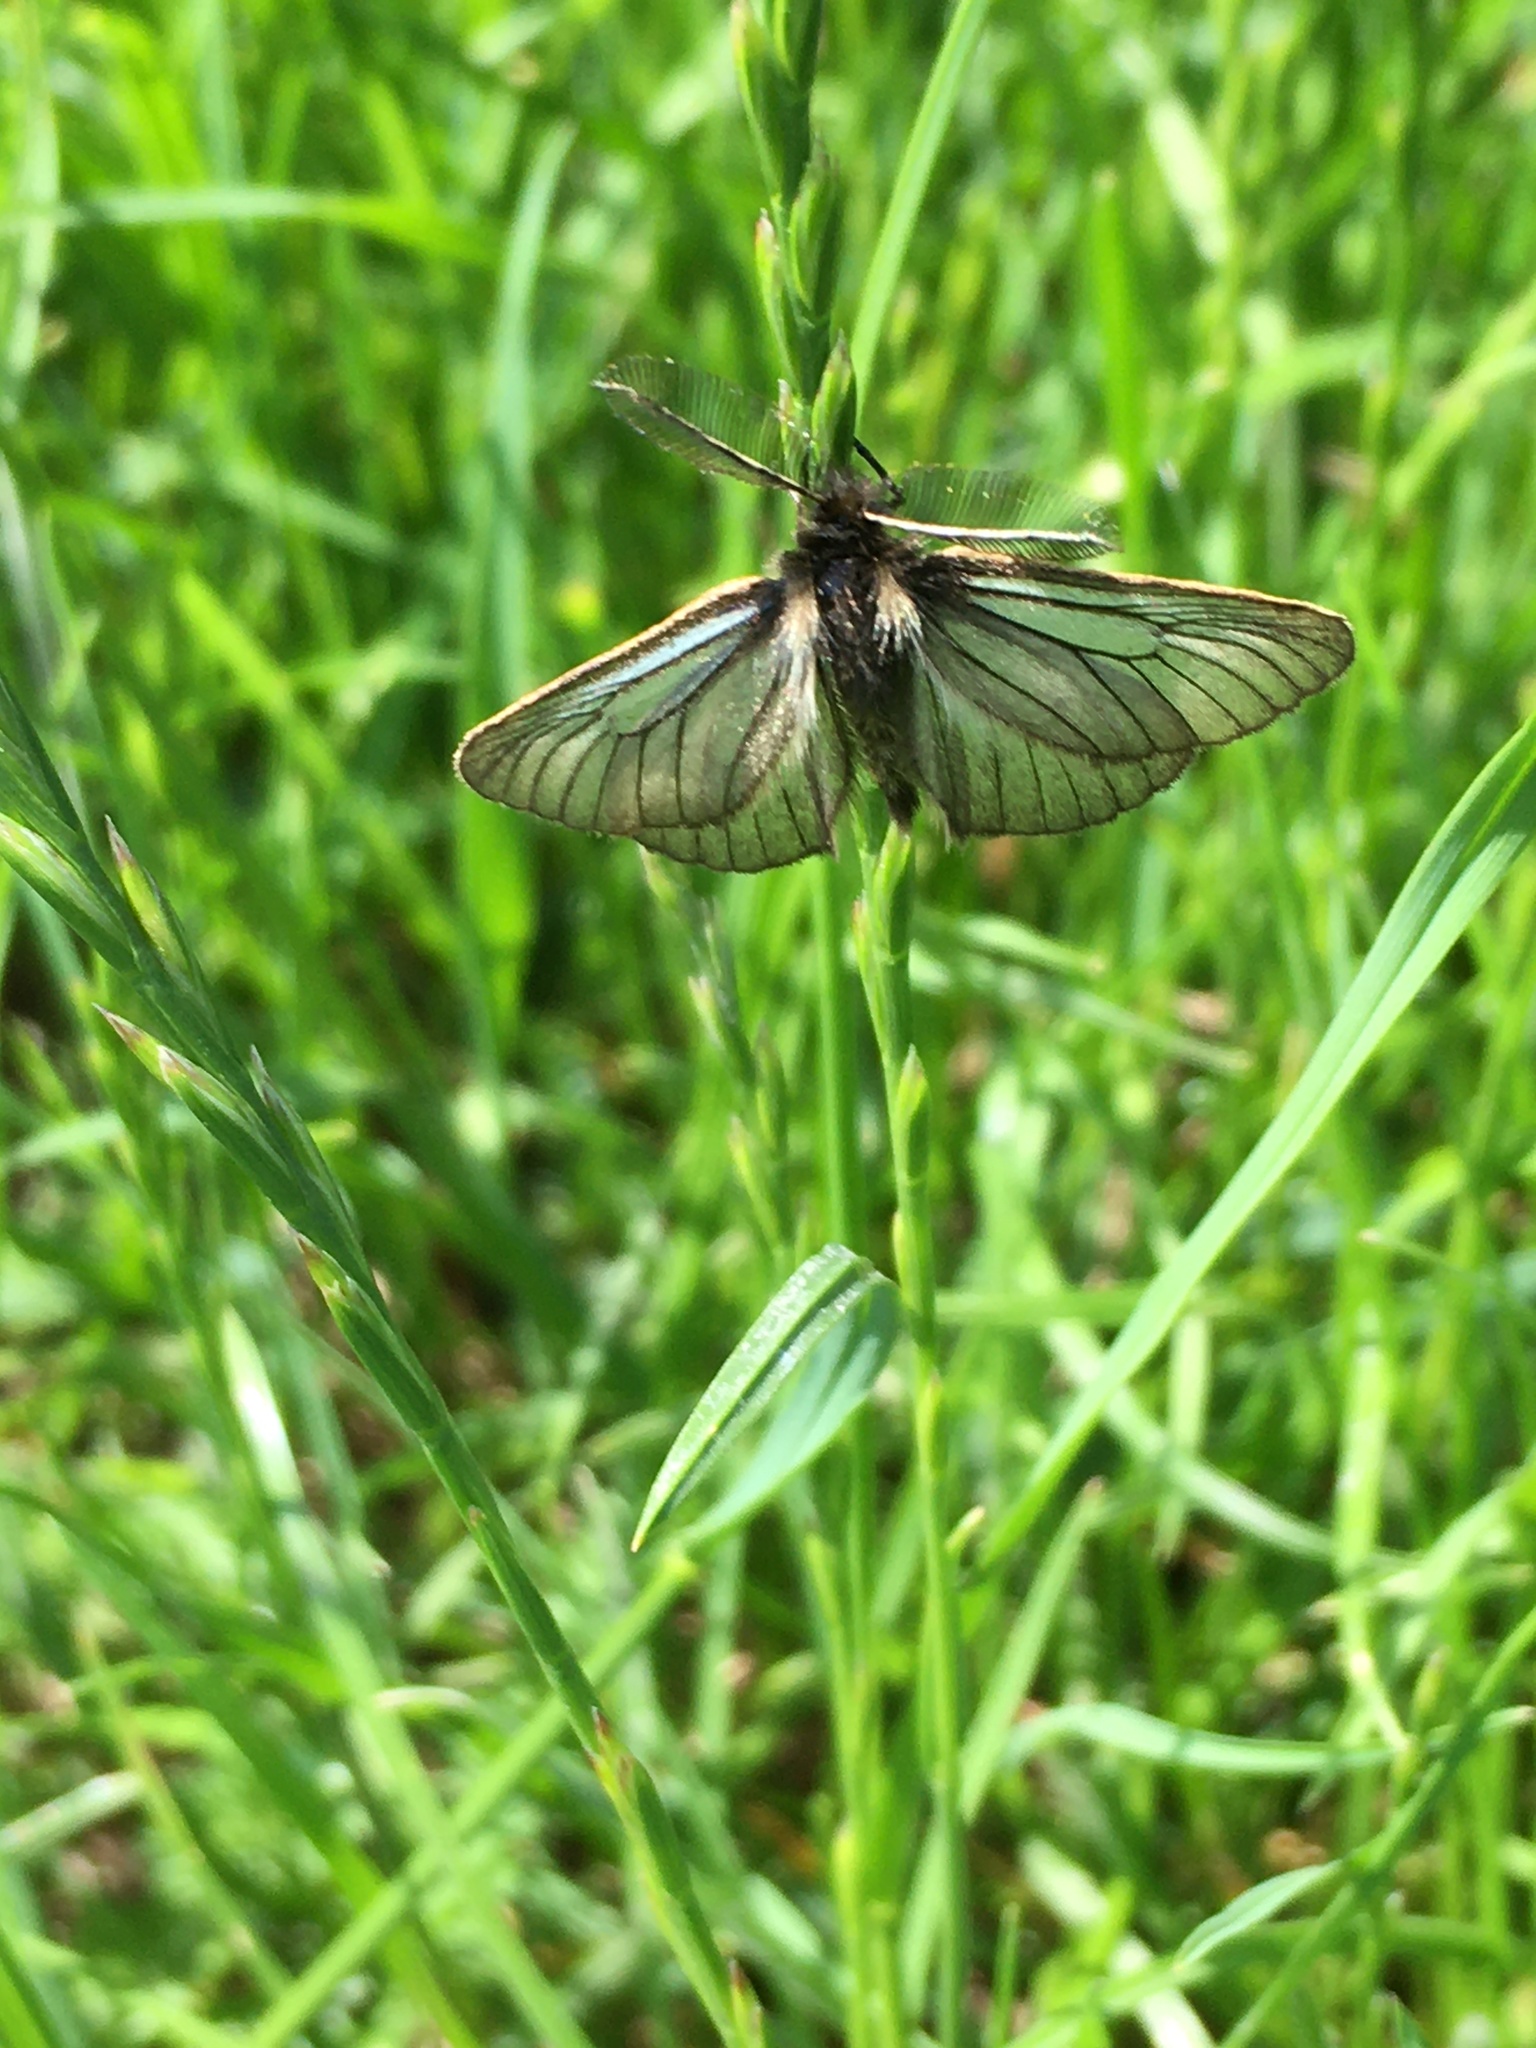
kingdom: Animalia
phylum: Arthropoda
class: Insecta
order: Lepidoptera
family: Erebidae
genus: Penthophera
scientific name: Penthophera morio
